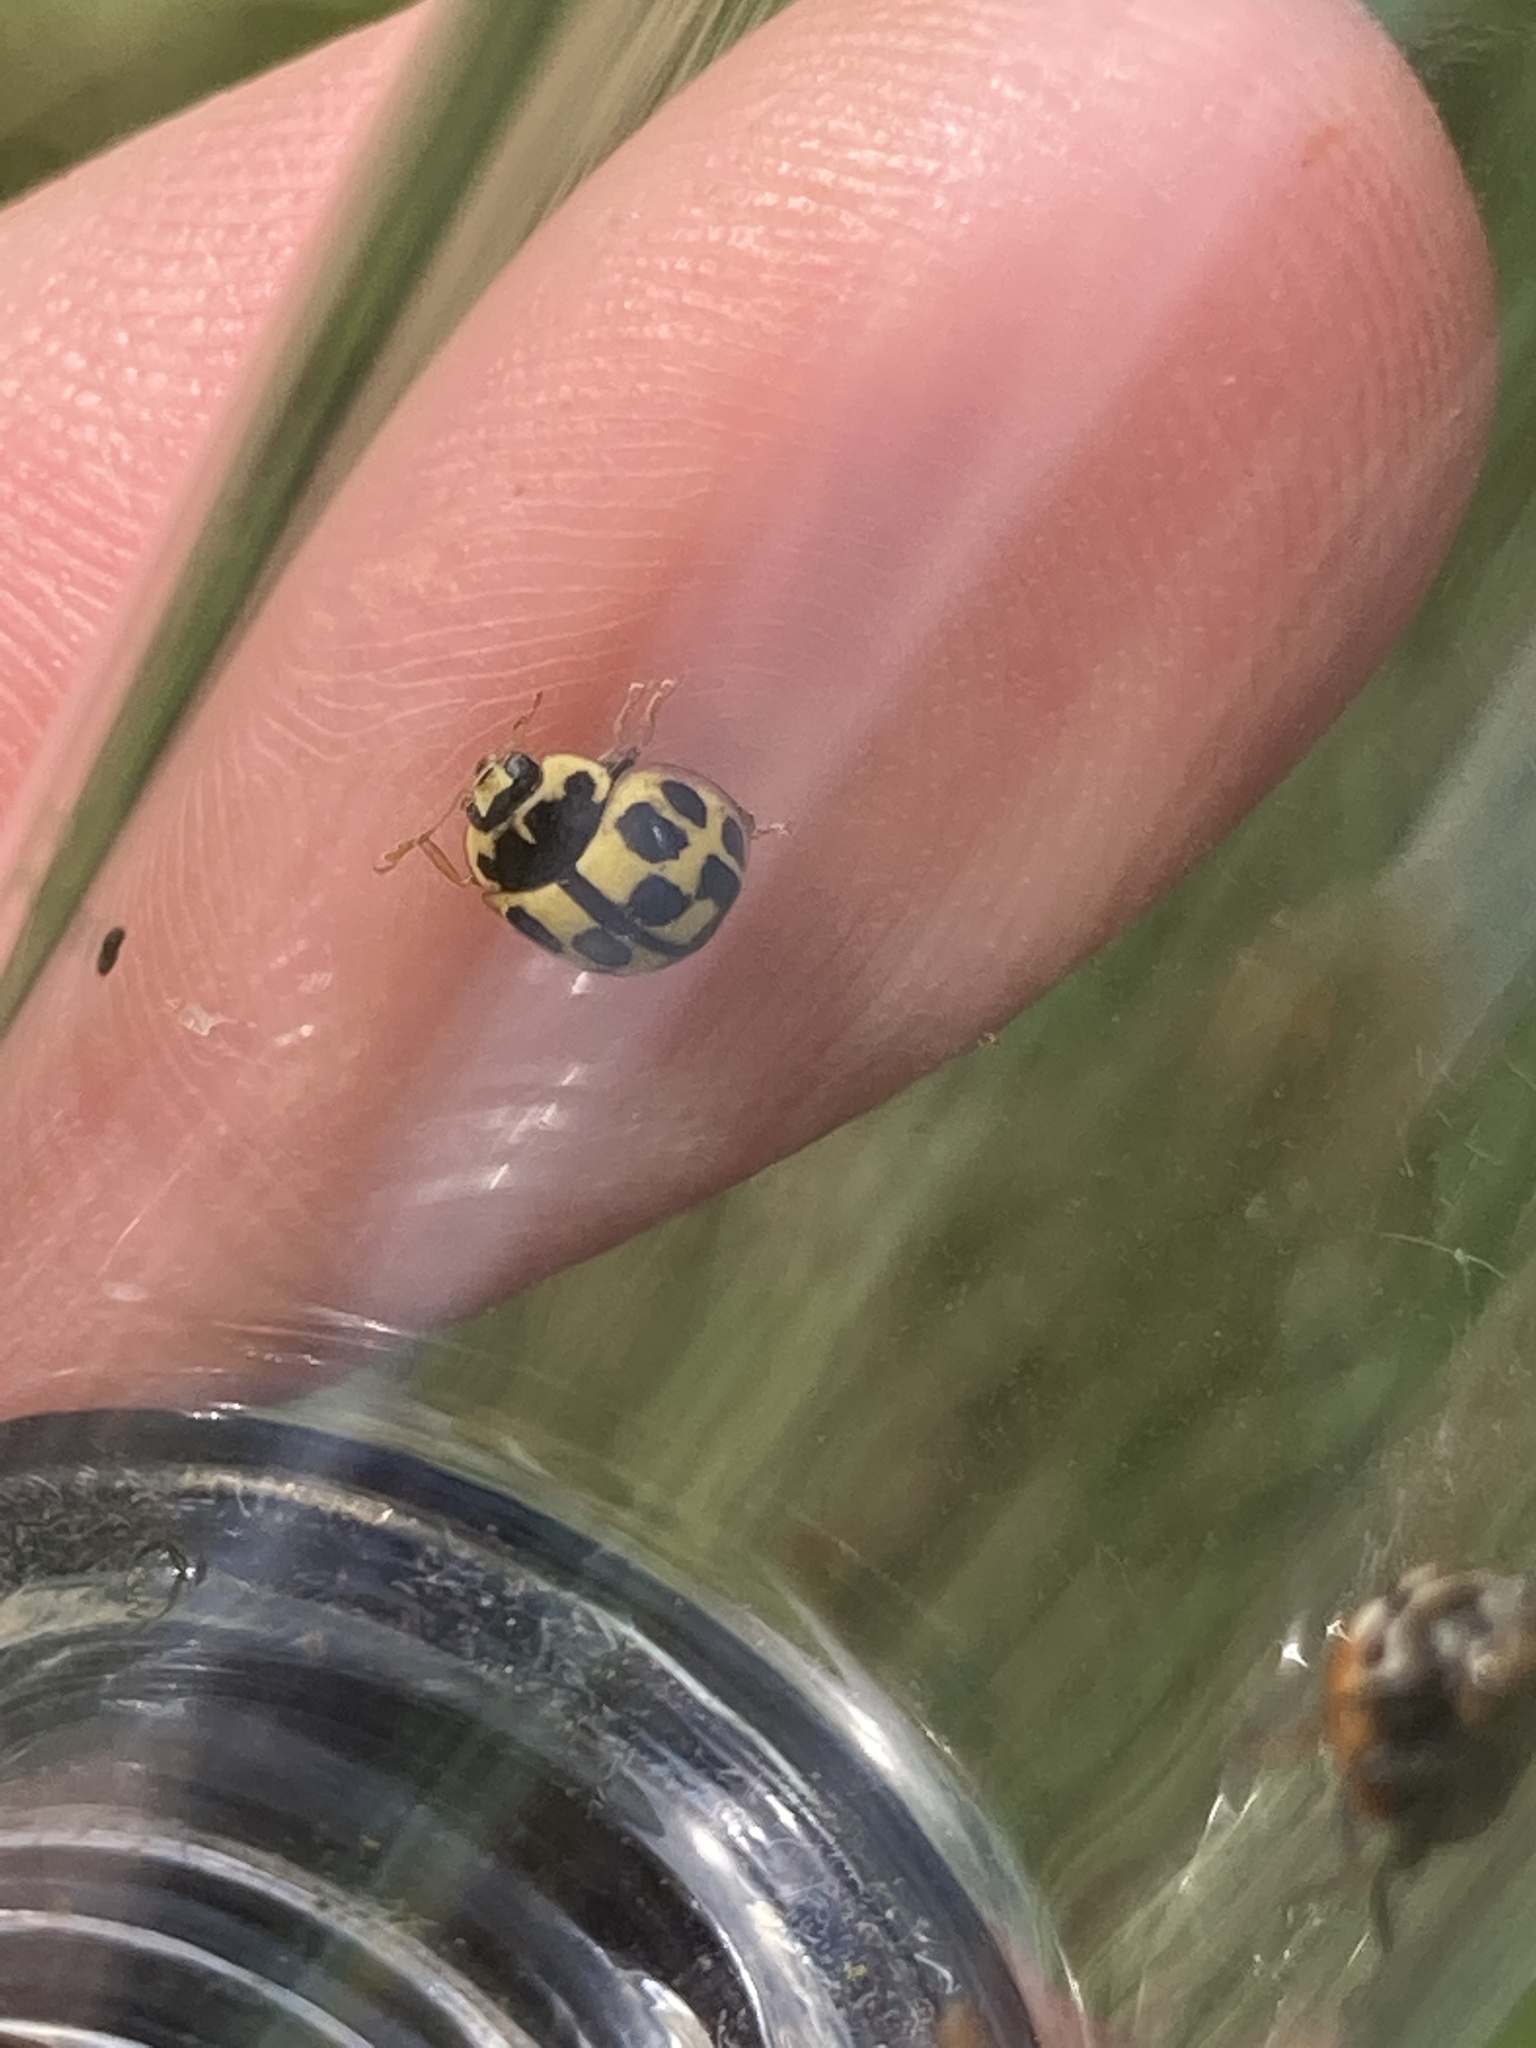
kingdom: Animalia
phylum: Arthropoda
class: Insecta
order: Coleoptera
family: Coccinellidae
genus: Propylaea
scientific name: Propylaea quatuordecimpunctata
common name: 14-spotted ladybird beetle
